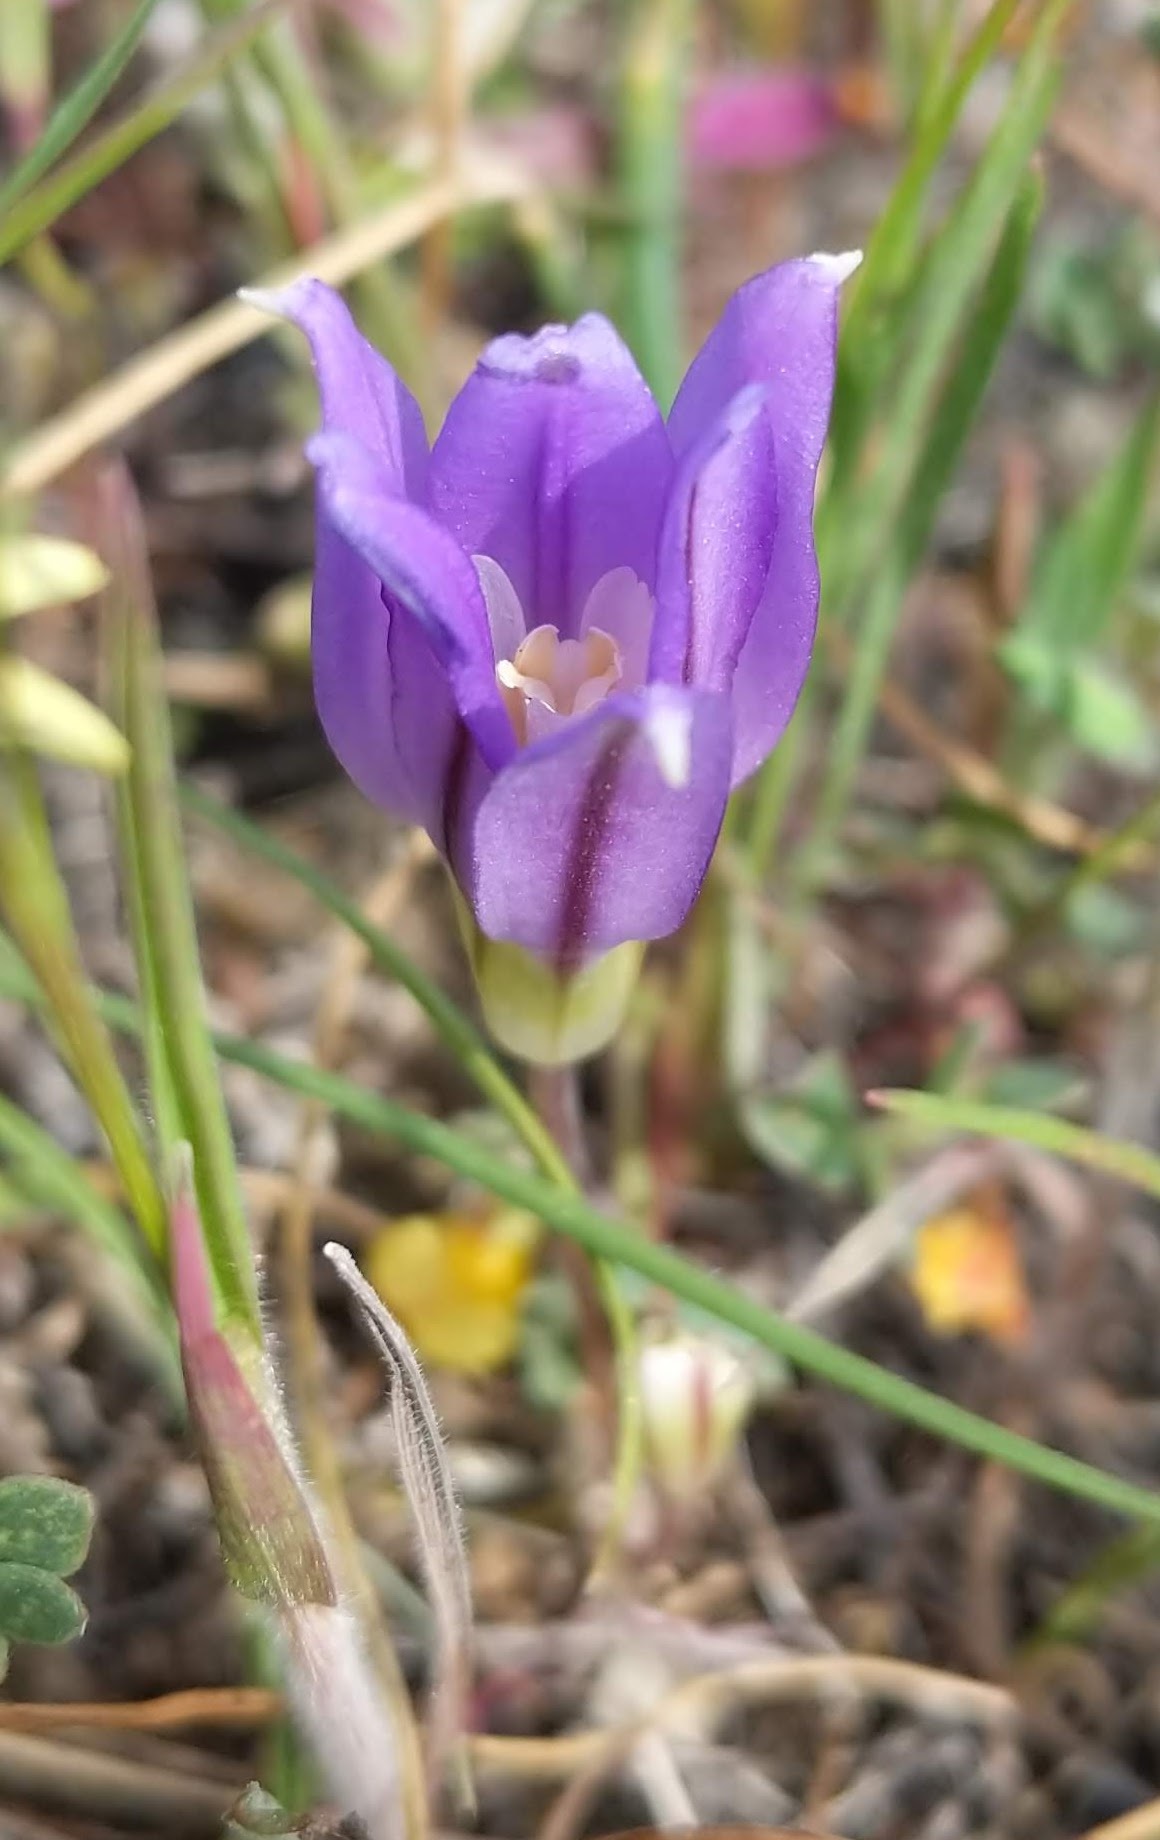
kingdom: Plantae
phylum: Tracheophyta
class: Liliopsida
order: Asparagales
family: Asparagaceae
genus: Brodiaea
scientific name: Brodiaea terrestris
